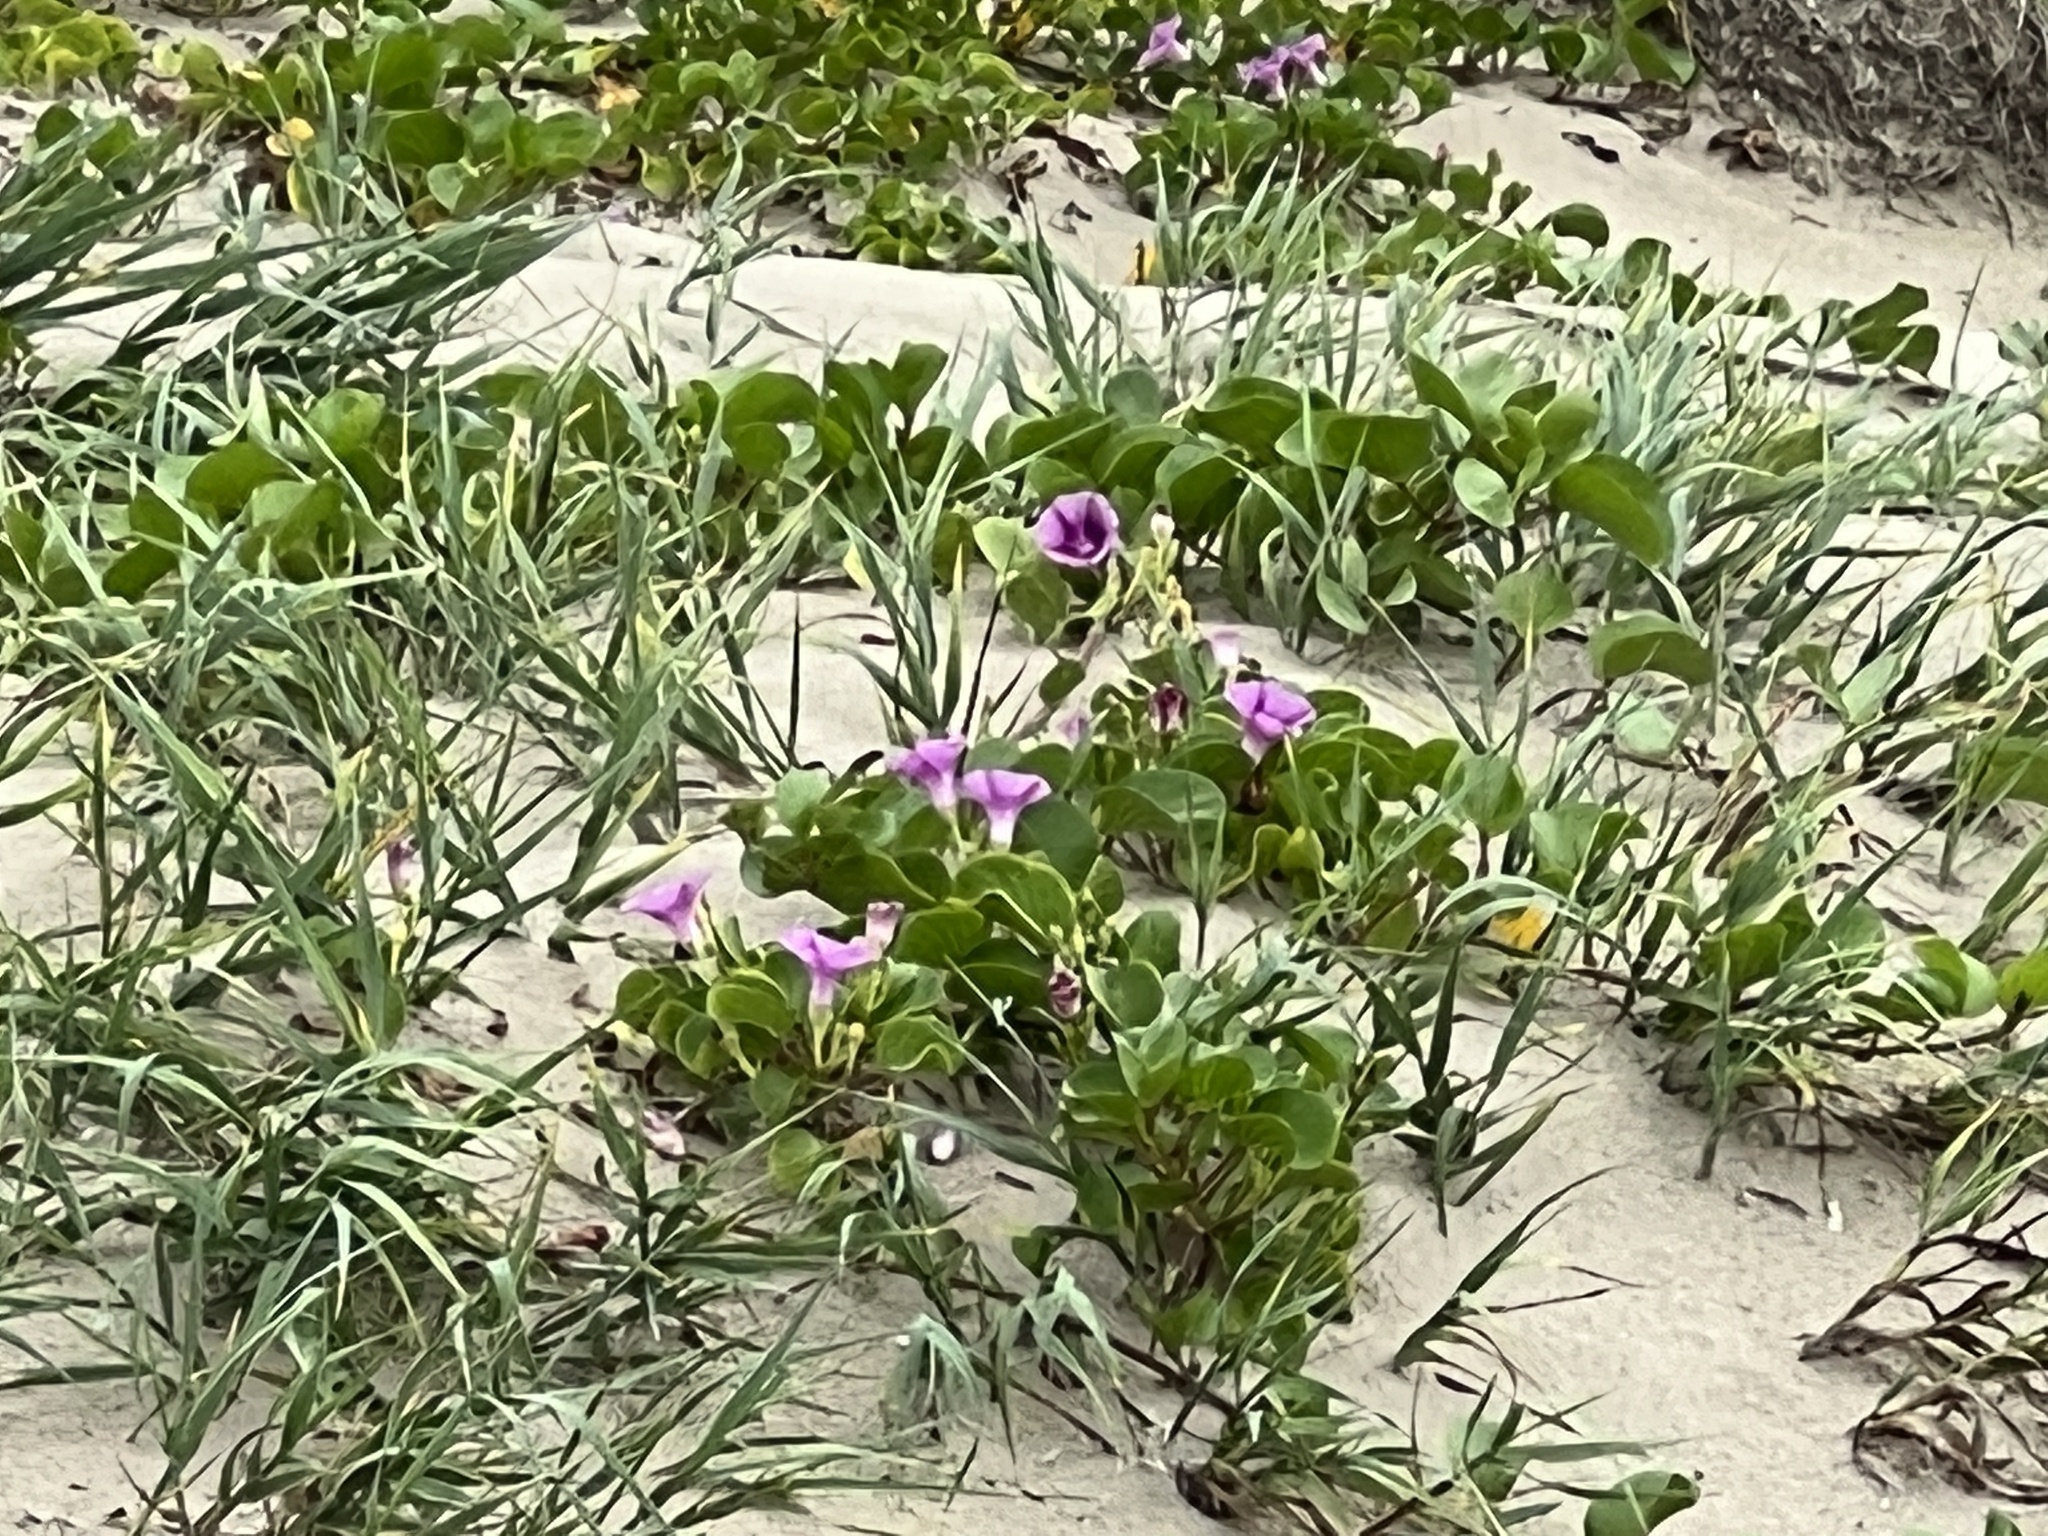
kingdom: Plantae
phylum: Tracheophyta
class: Magnoliopsida
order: Solanales
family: Convolvulaceae
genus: Ipomoea
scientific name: Ipomoea pes-caprae
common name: Beach morning glory
